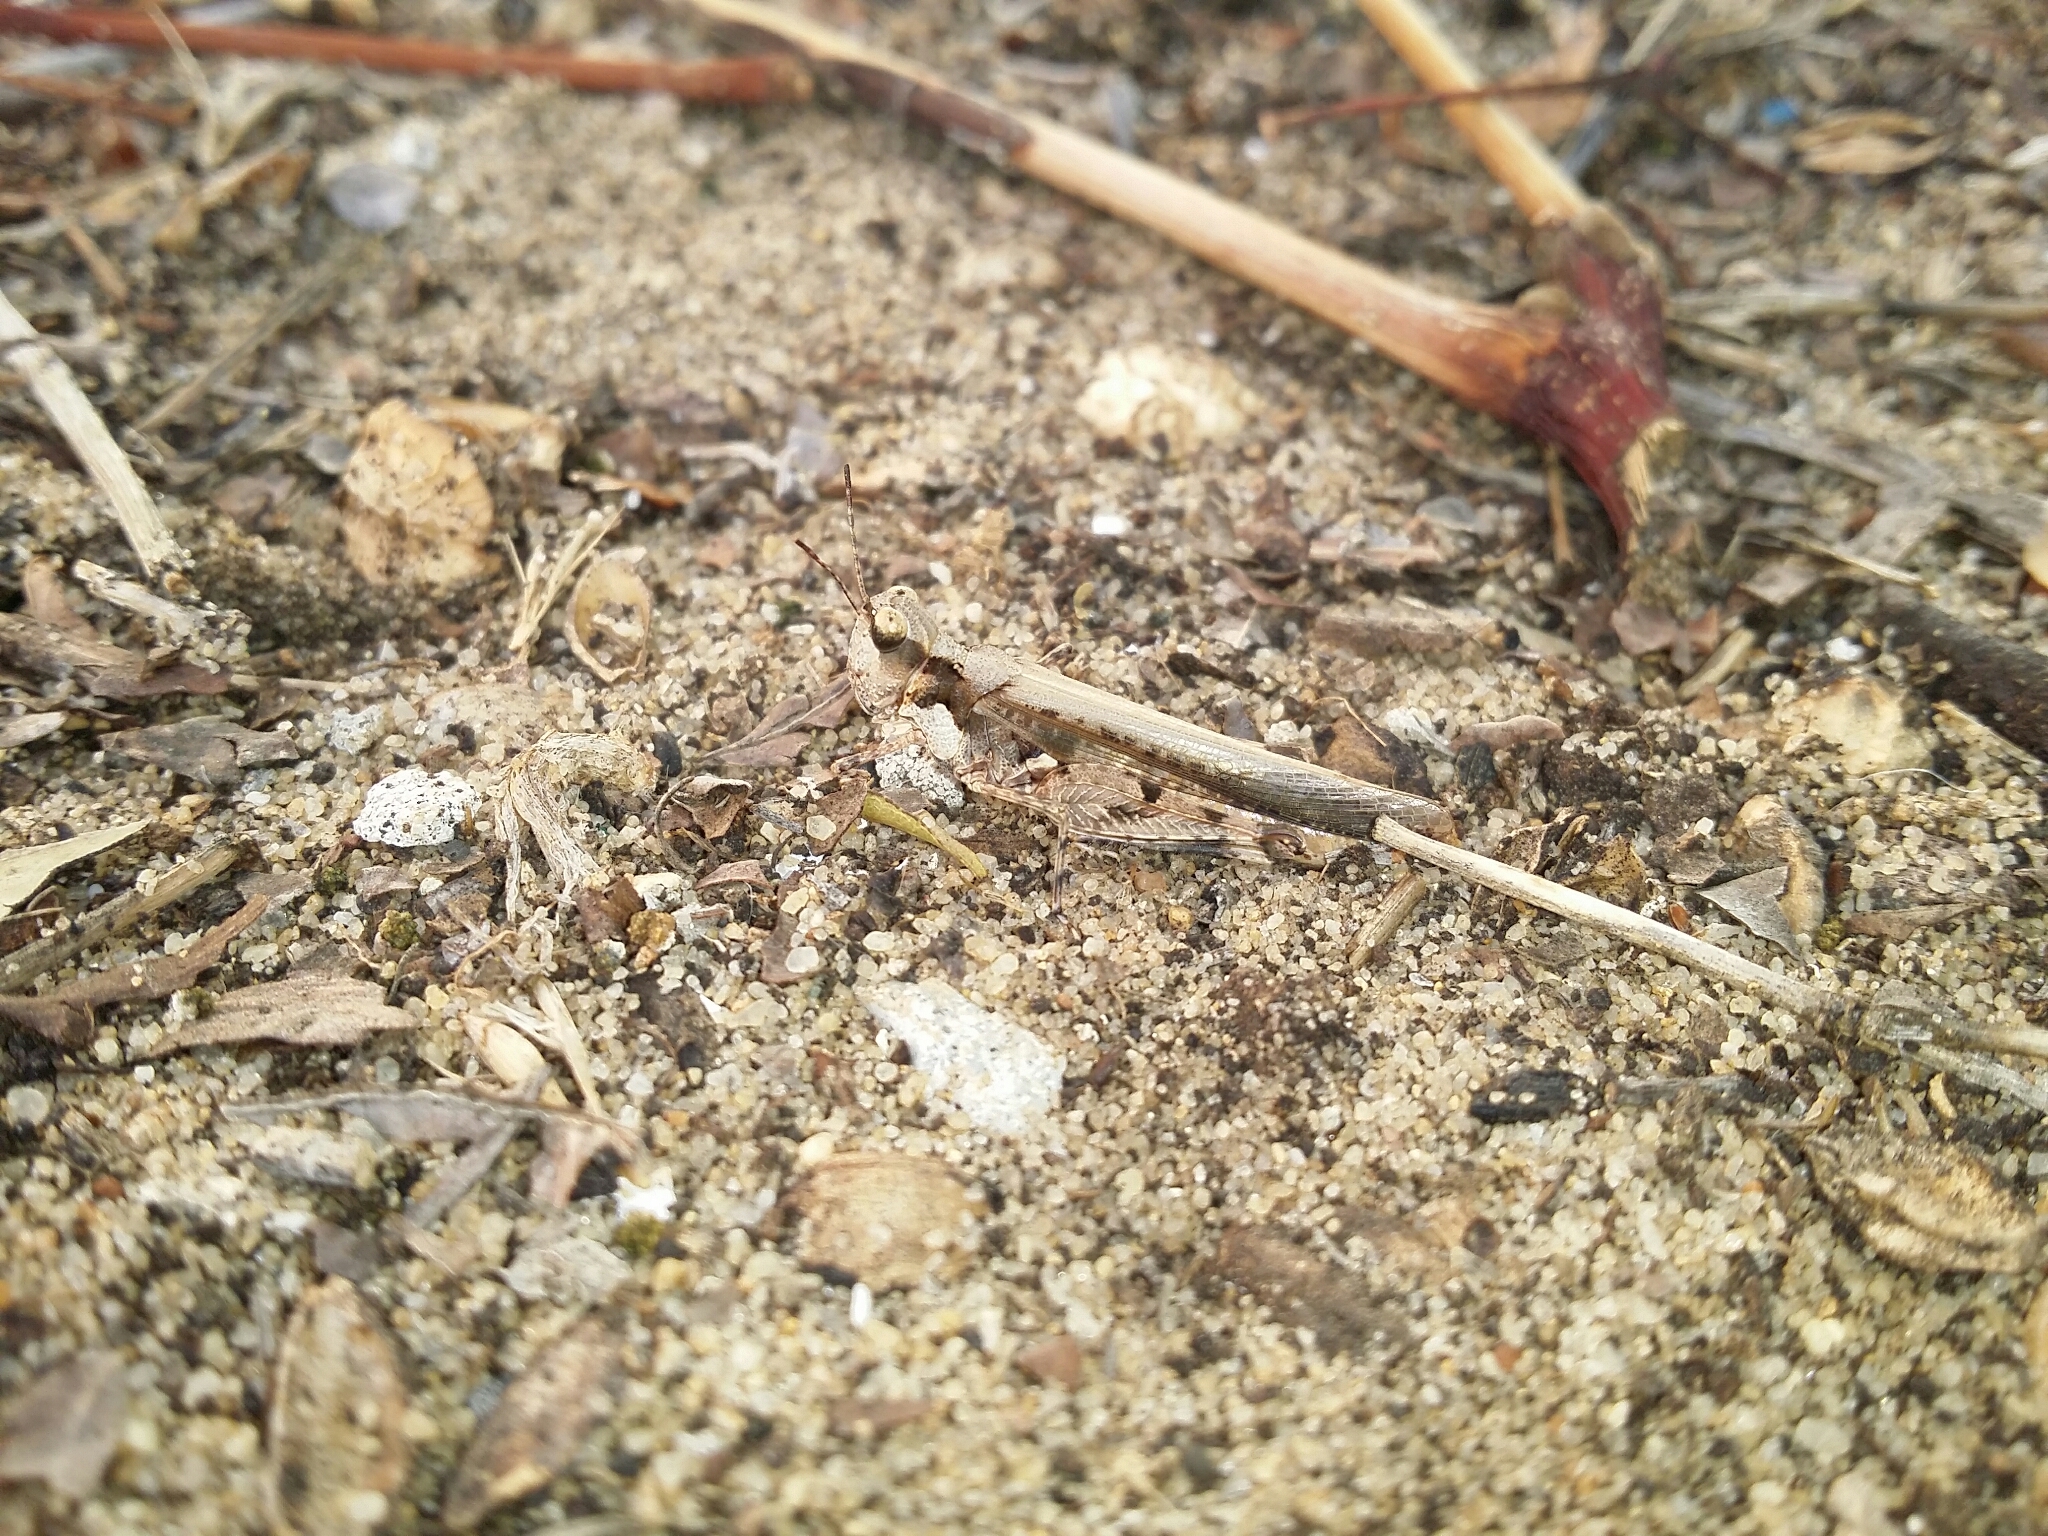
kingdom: Animalia
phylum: Arthropoda
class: Insecta
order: Orthoptera
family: Acrididae
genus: Pycnostictus
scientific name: Pycnostictus seriatus
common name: Common bandwing
